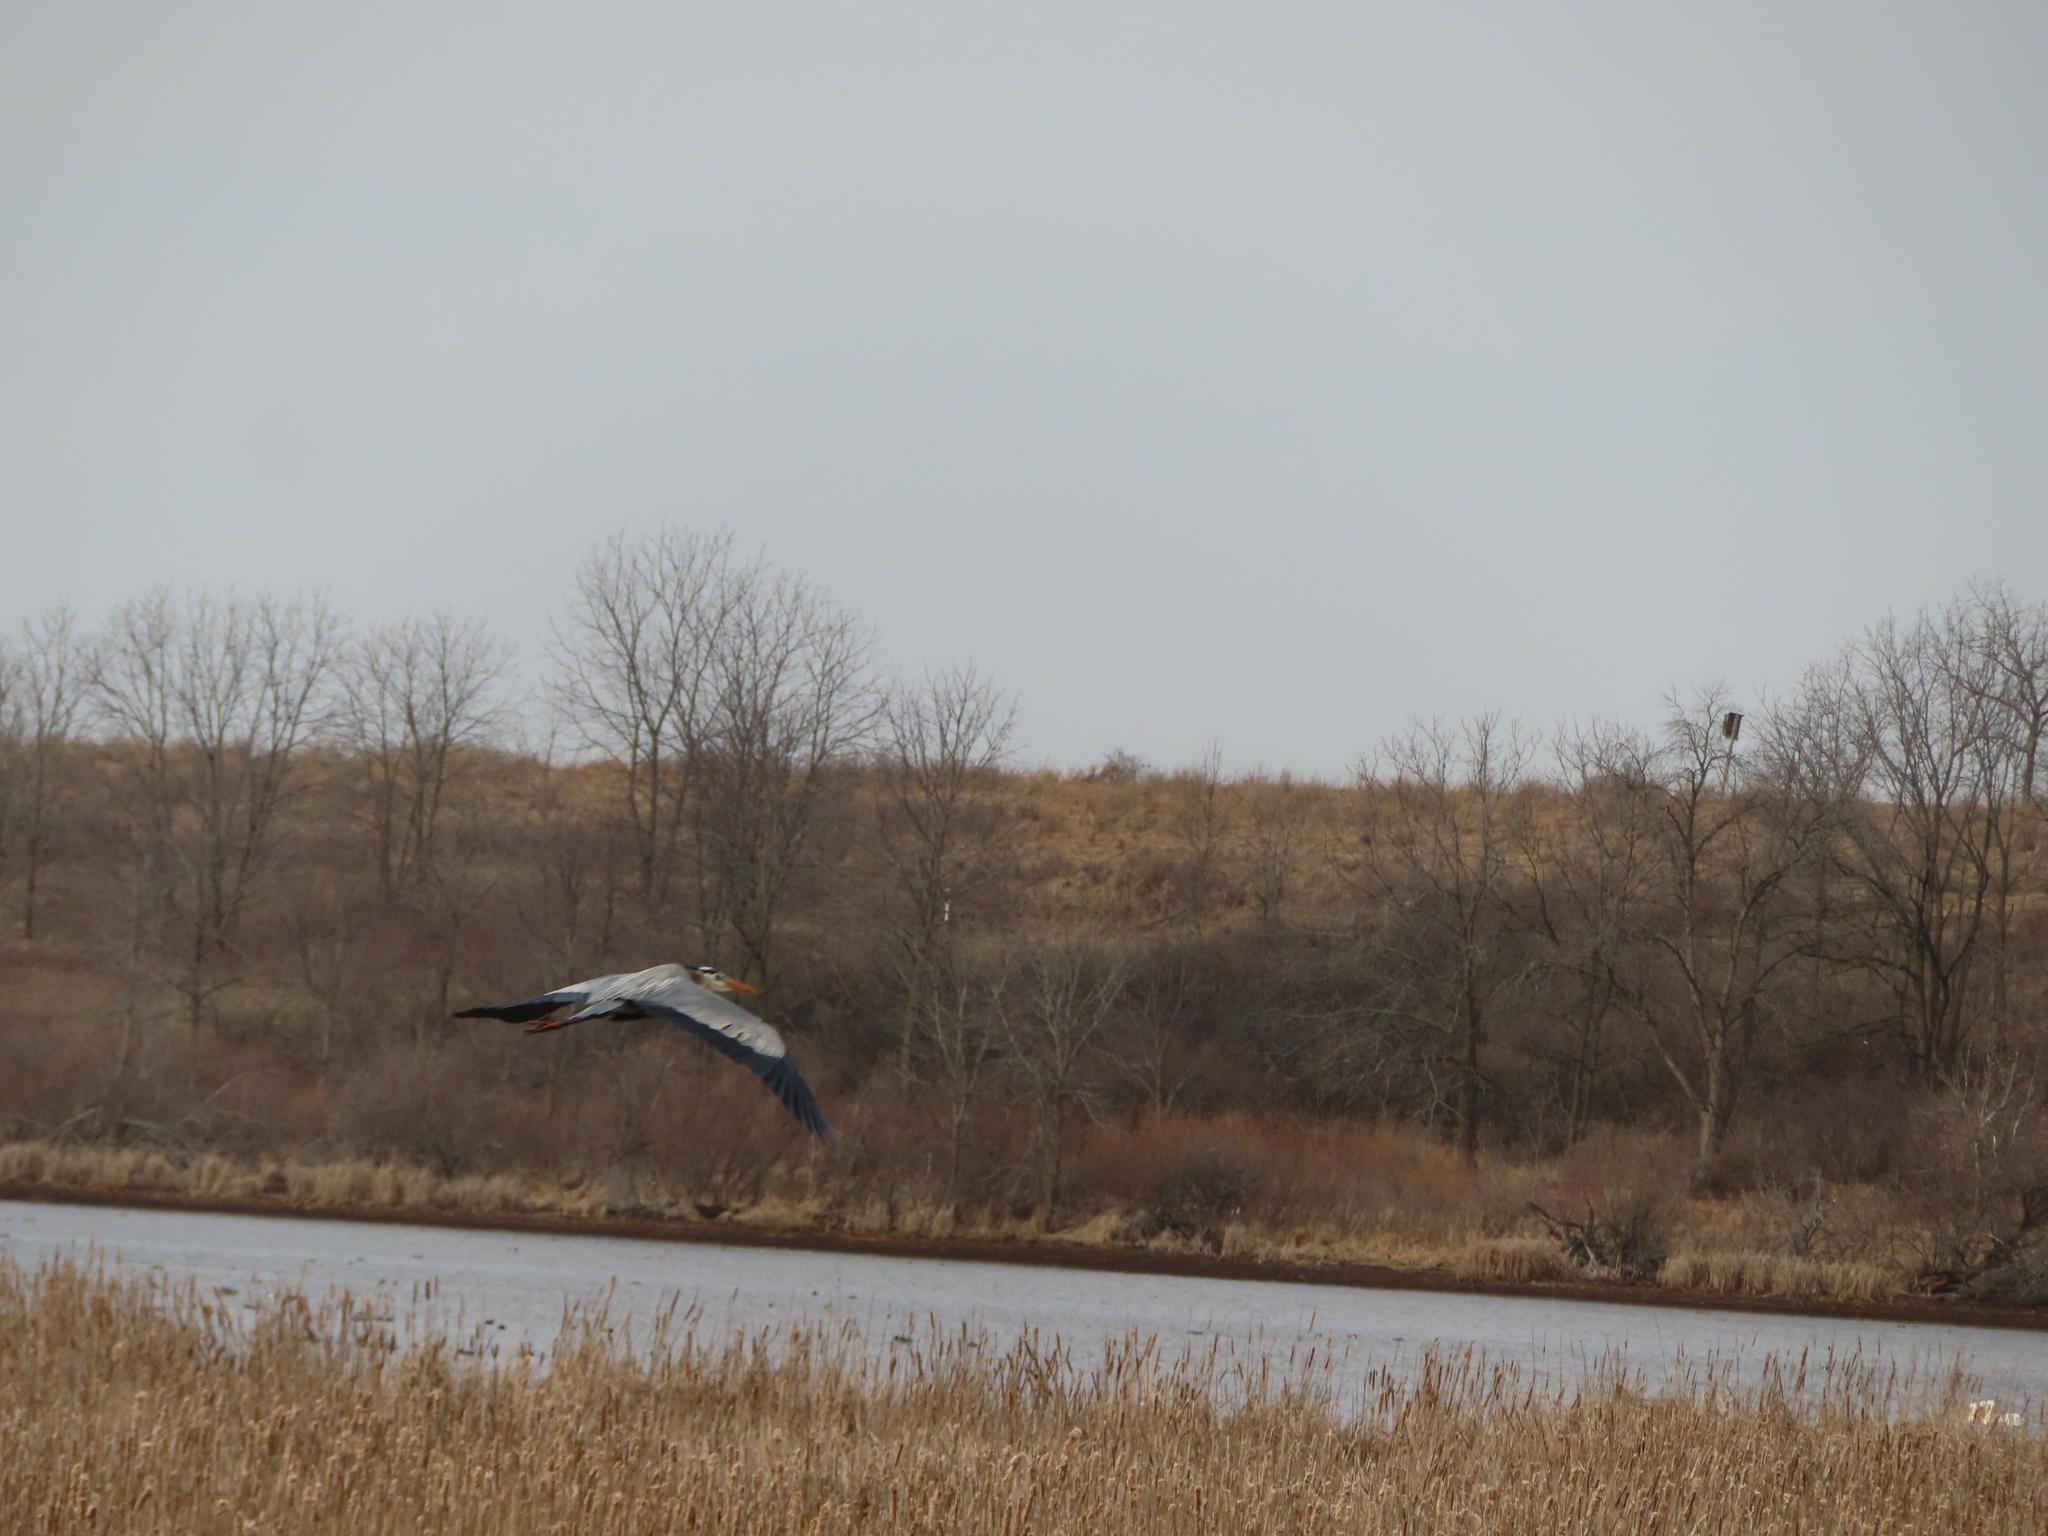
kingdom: Animalia
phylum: Chordata
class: Aves
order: Pelecaniformes
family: Ardeidae
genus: Ardea
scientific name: Ardea herodias
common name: Great blue heron
